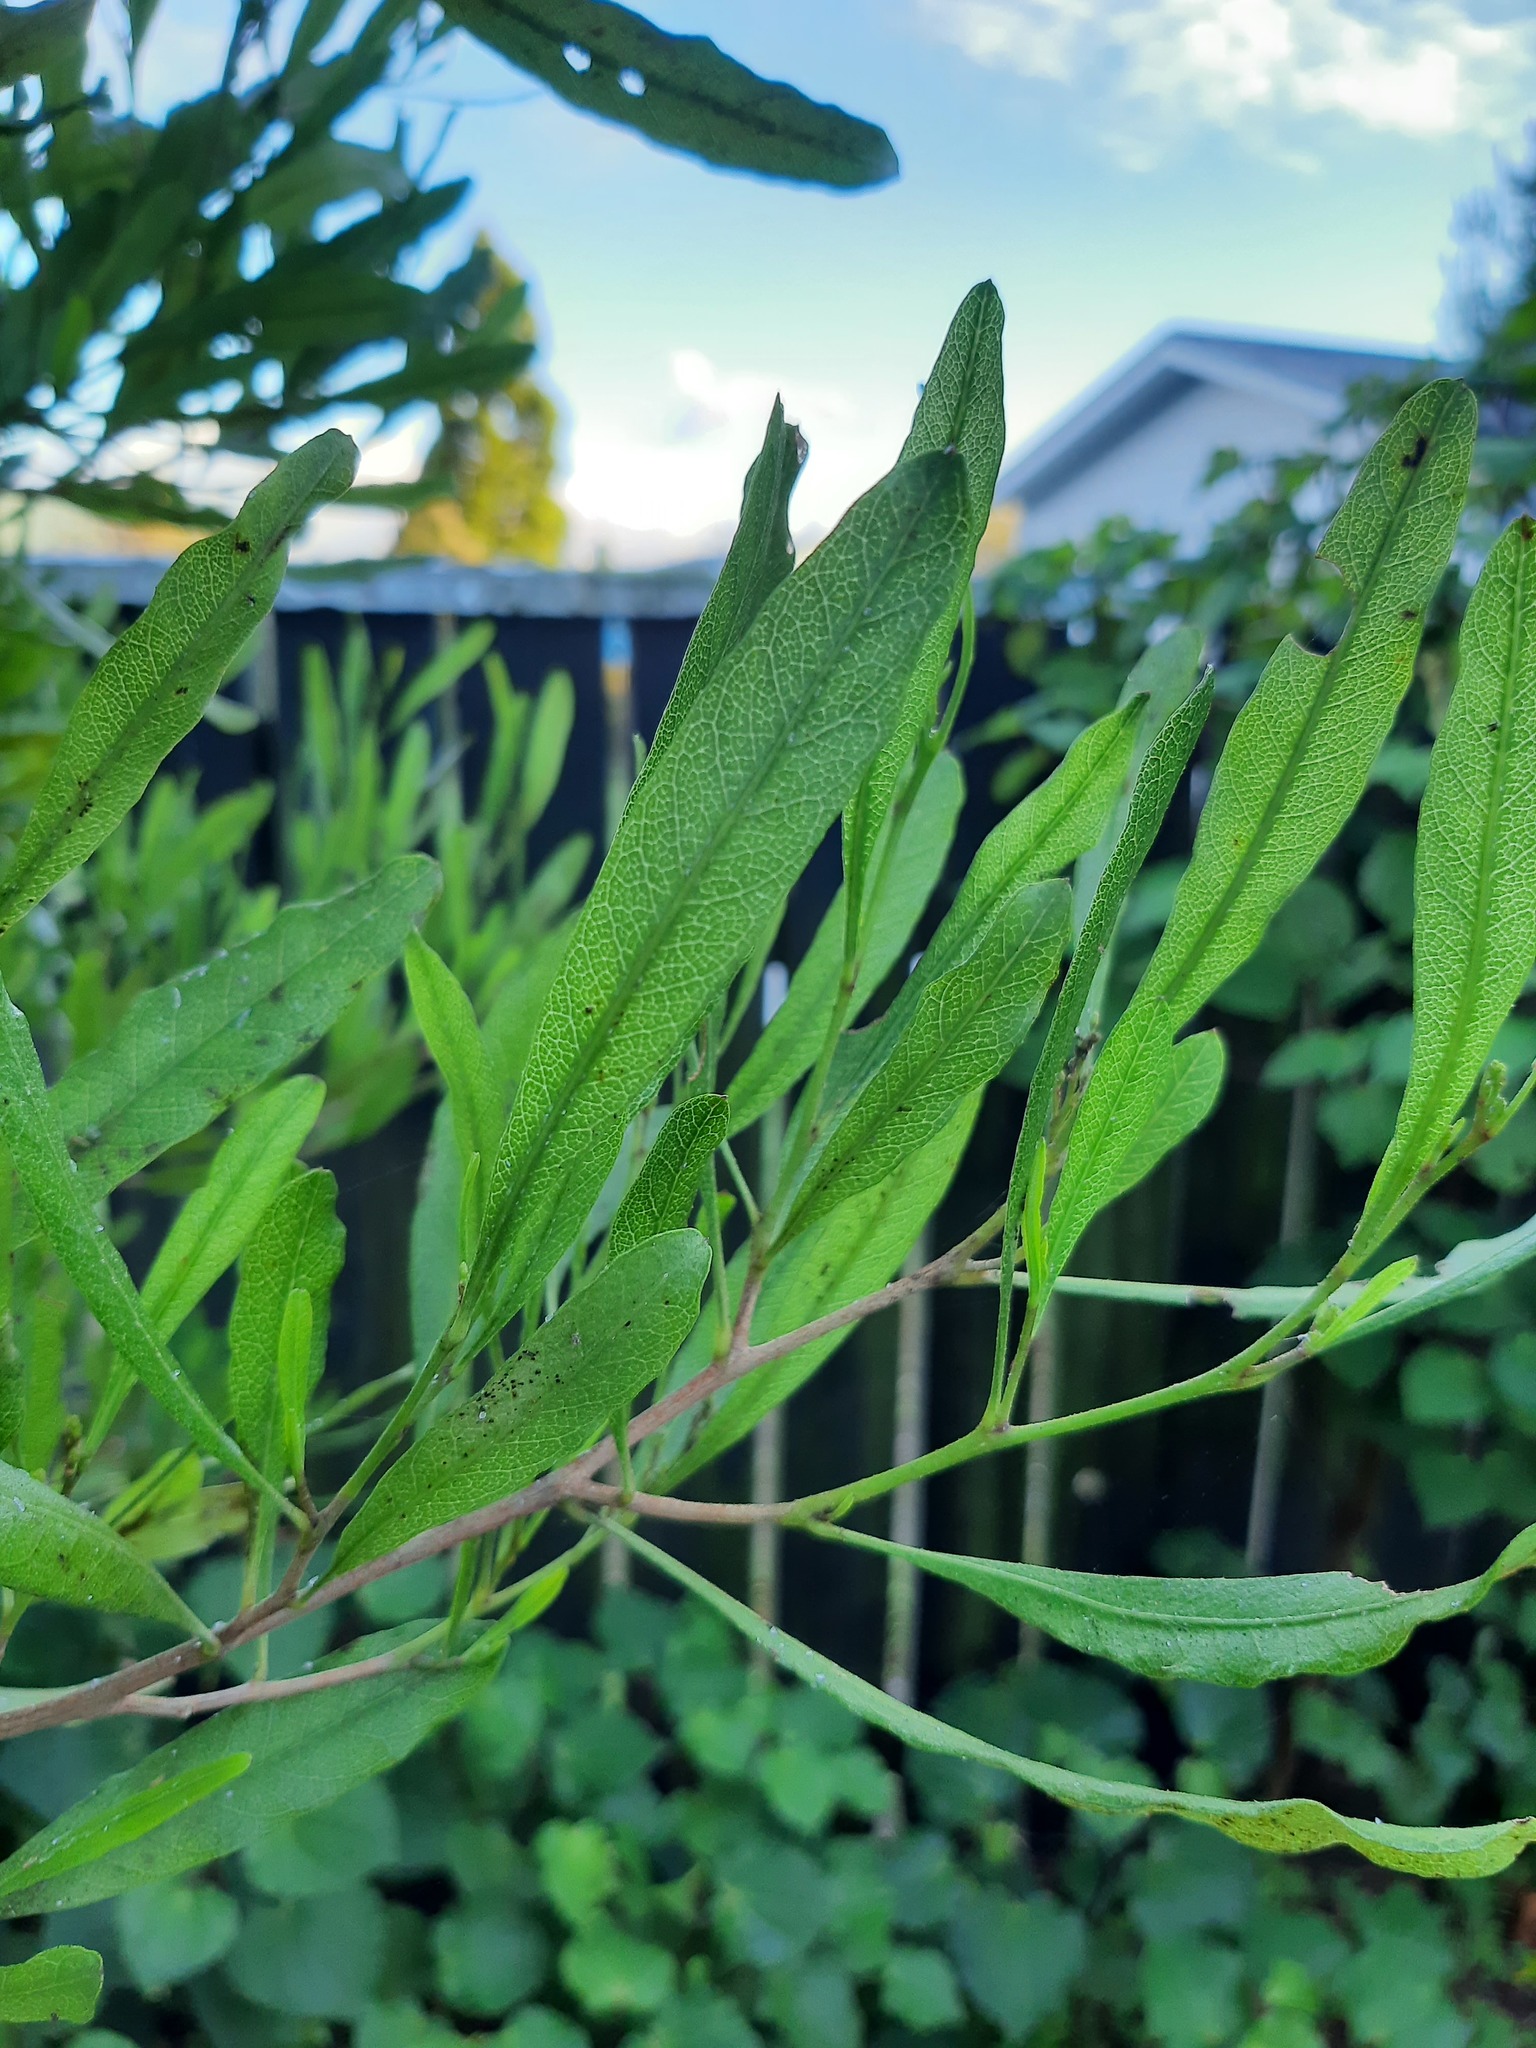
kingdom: Plantae
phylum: Tracheophyta
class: Magnoliopsida
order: Sapindales
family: Sapindaceae
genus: Dodonaea
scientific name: Dodonaea viscosa
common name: Hopbush
